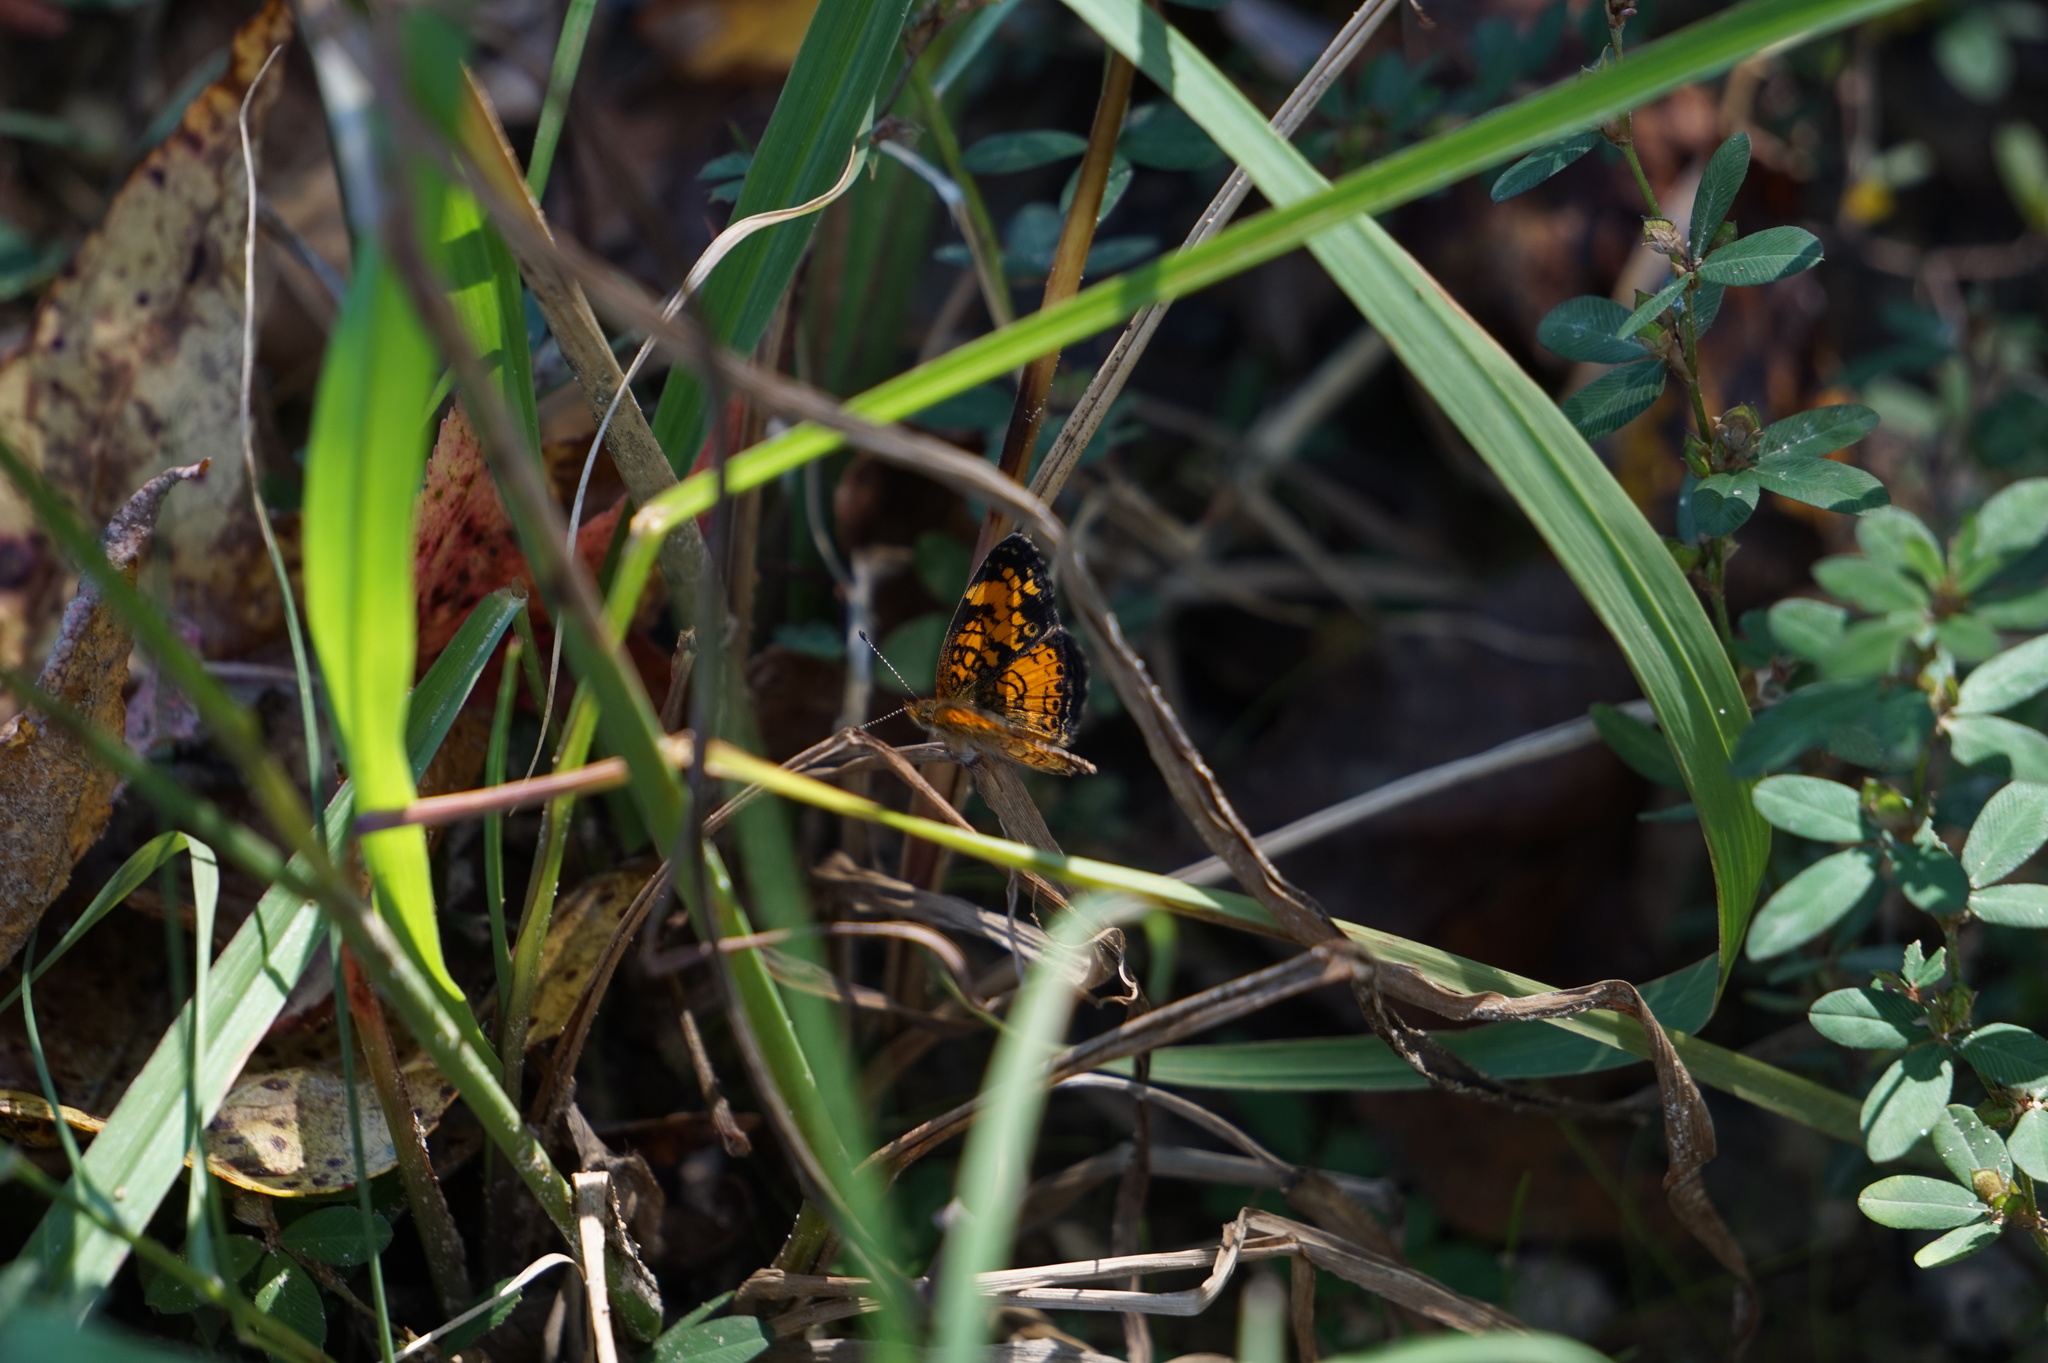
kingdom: Animalia
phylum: Arthropoda
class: Insecta
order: Lepidoptera
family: Nymphalidae
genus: Phyciodes
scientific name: Phyciodes tharos
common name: Pearl crescent
